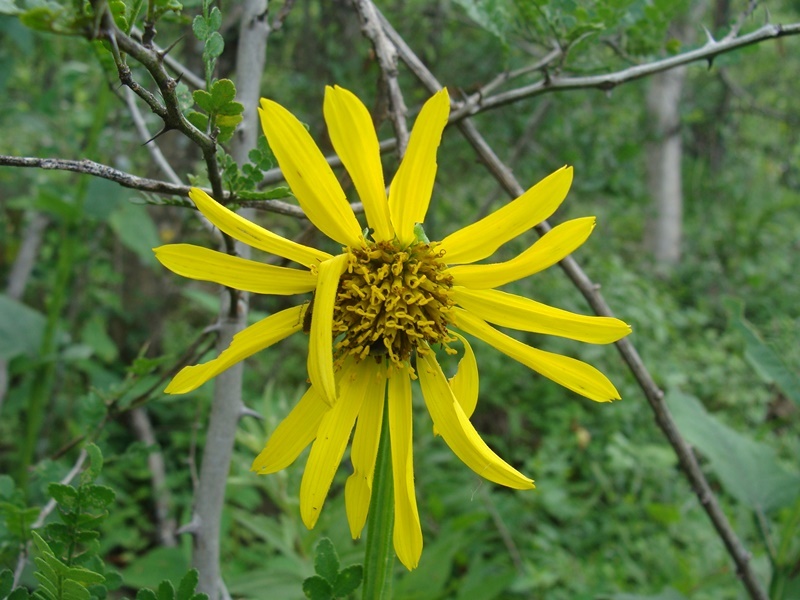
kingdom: Plantae
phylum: Tracheophyta
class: Magnoliopsida
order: Asterales
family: Asteraceae
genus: Verbesina
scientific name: Verbesina tetraptera
